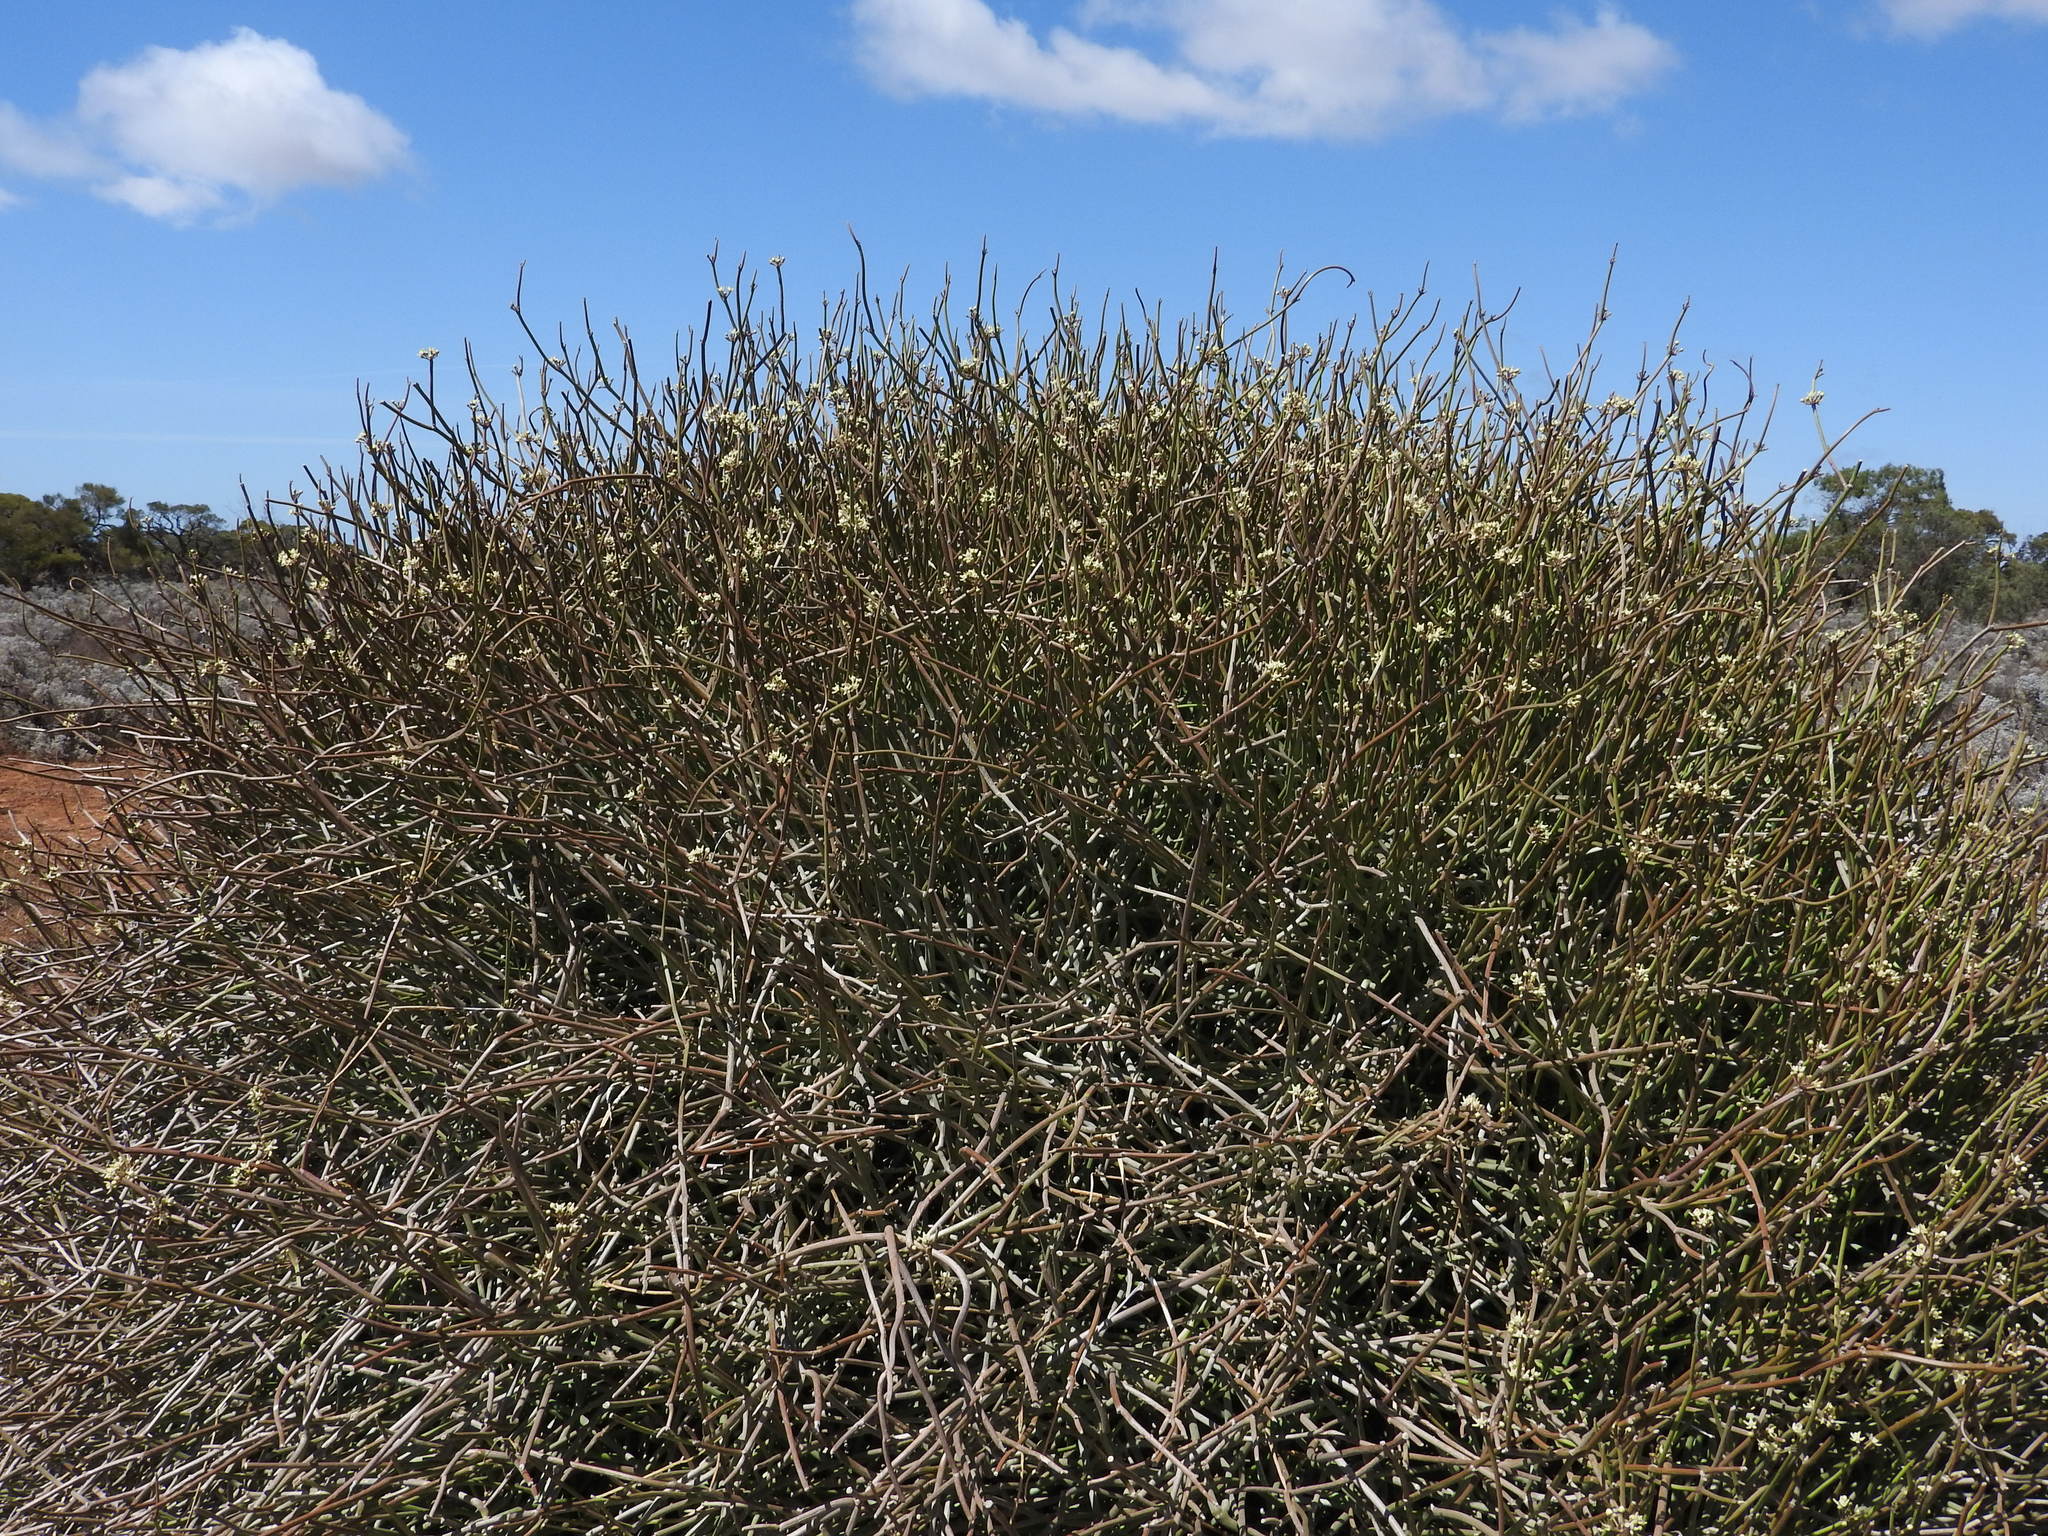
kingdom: Plantae
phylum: Tracheophyta
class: Magnoliopsida
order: Gentianales
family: Apocynaceae
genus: Cynanchum
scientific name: Cynanchum viminale
